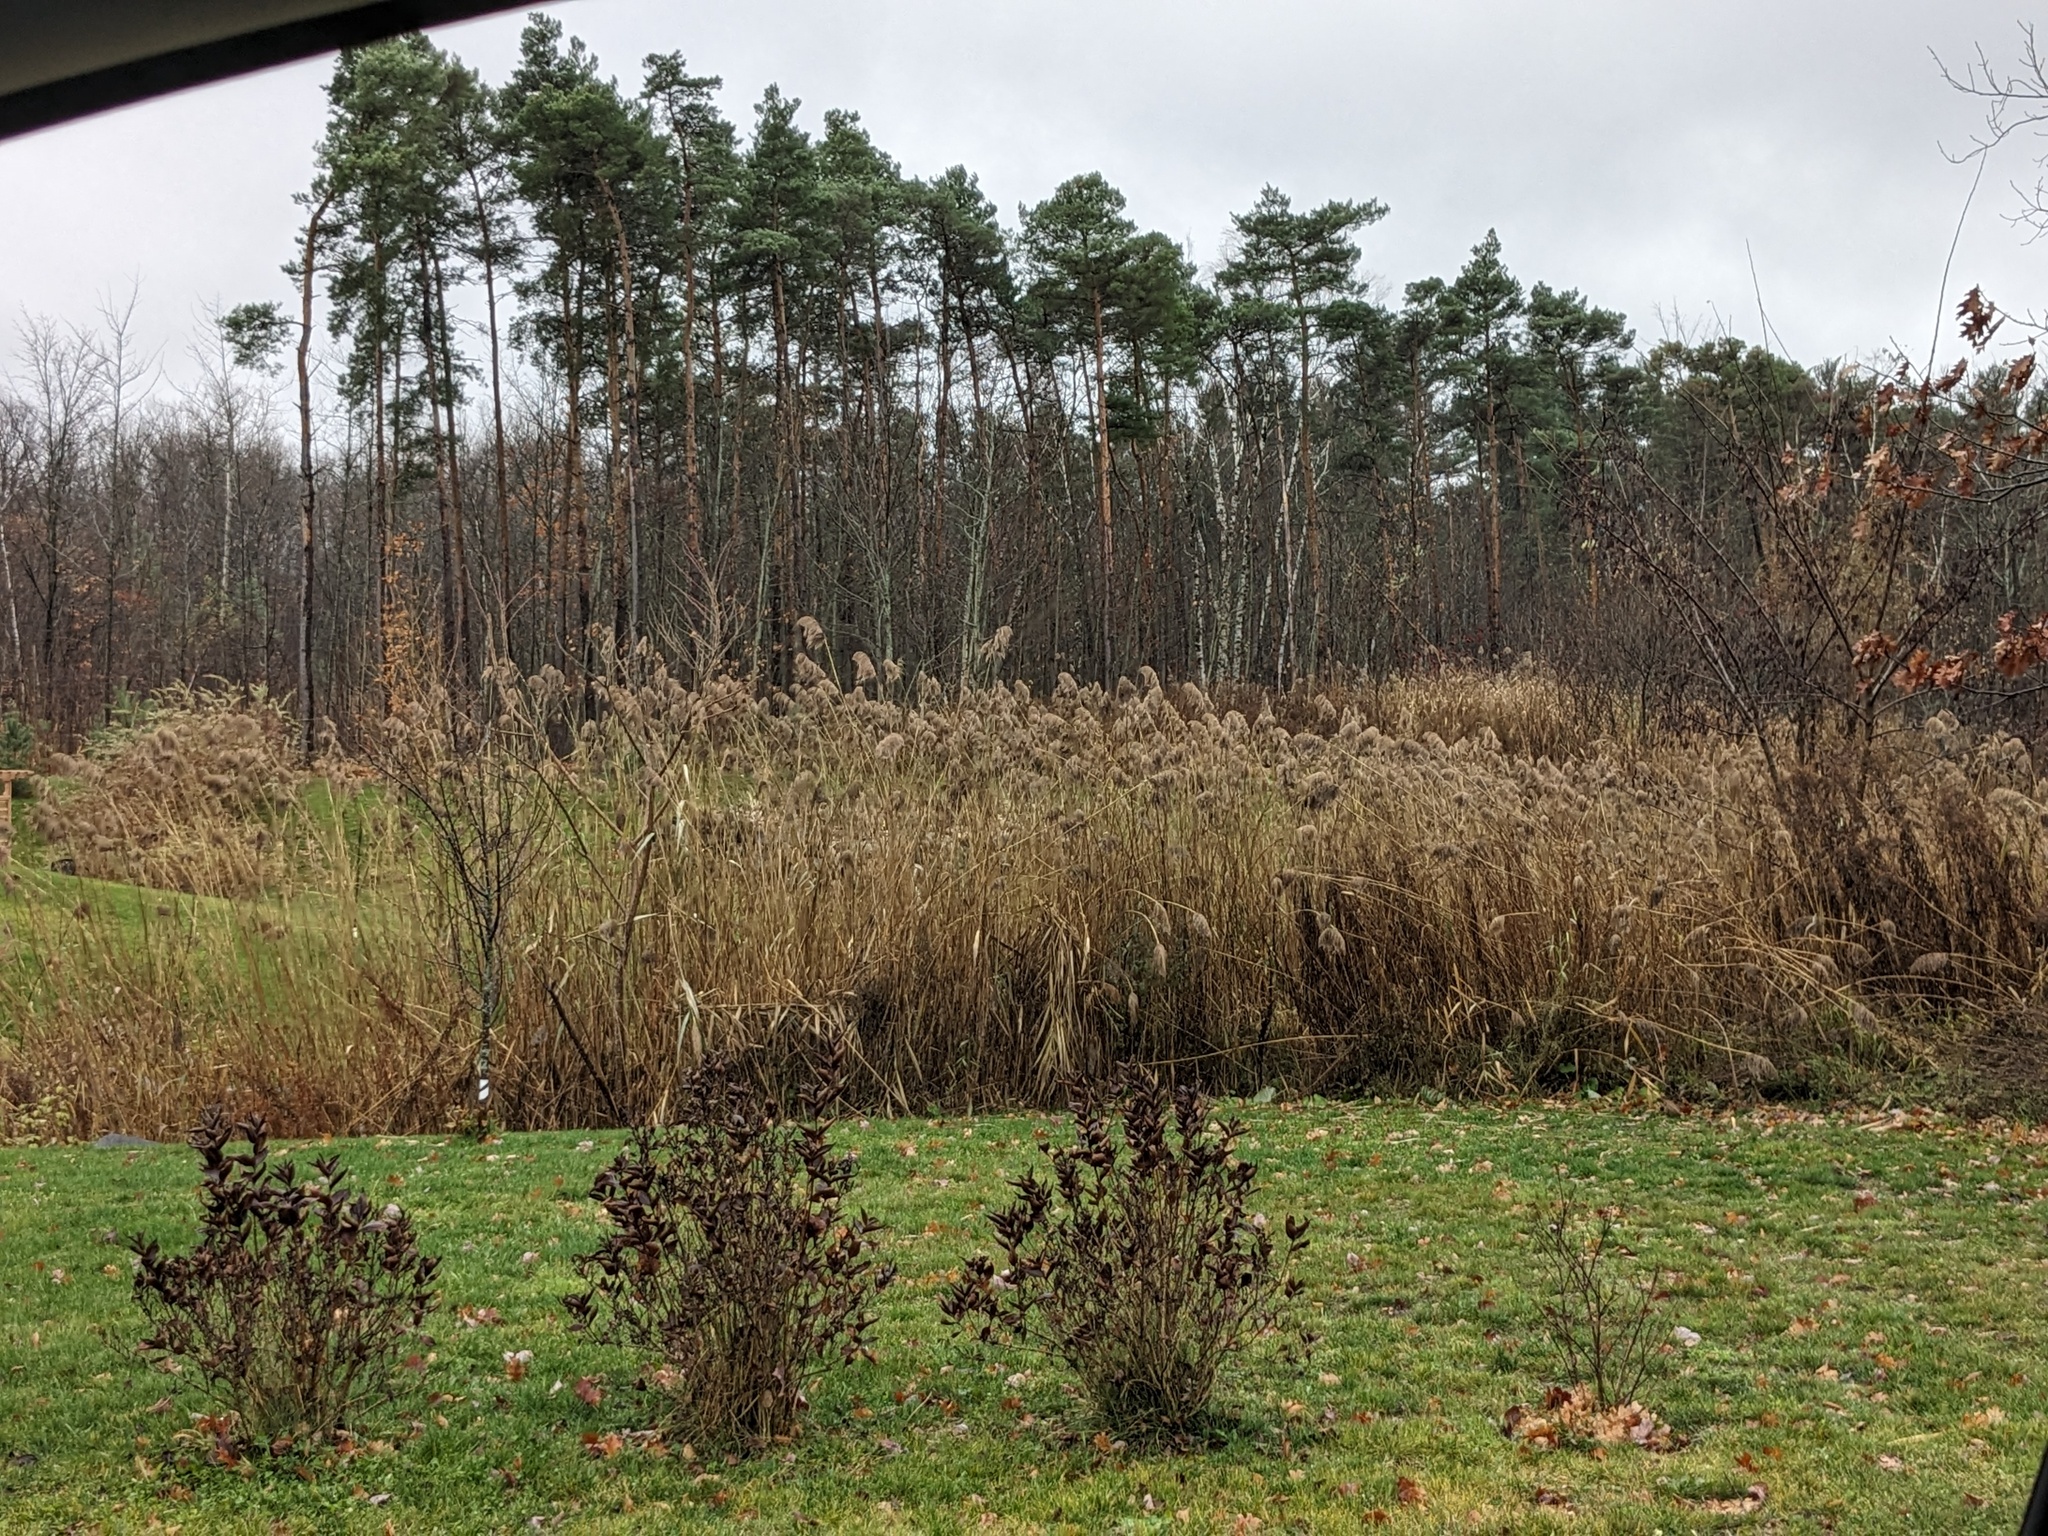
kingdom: Plantae
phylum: Tracheophyta
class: Liliopsida
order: Poales
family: Poaceae
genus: Phragmites
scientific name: Phragmites australis
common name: Common reed
